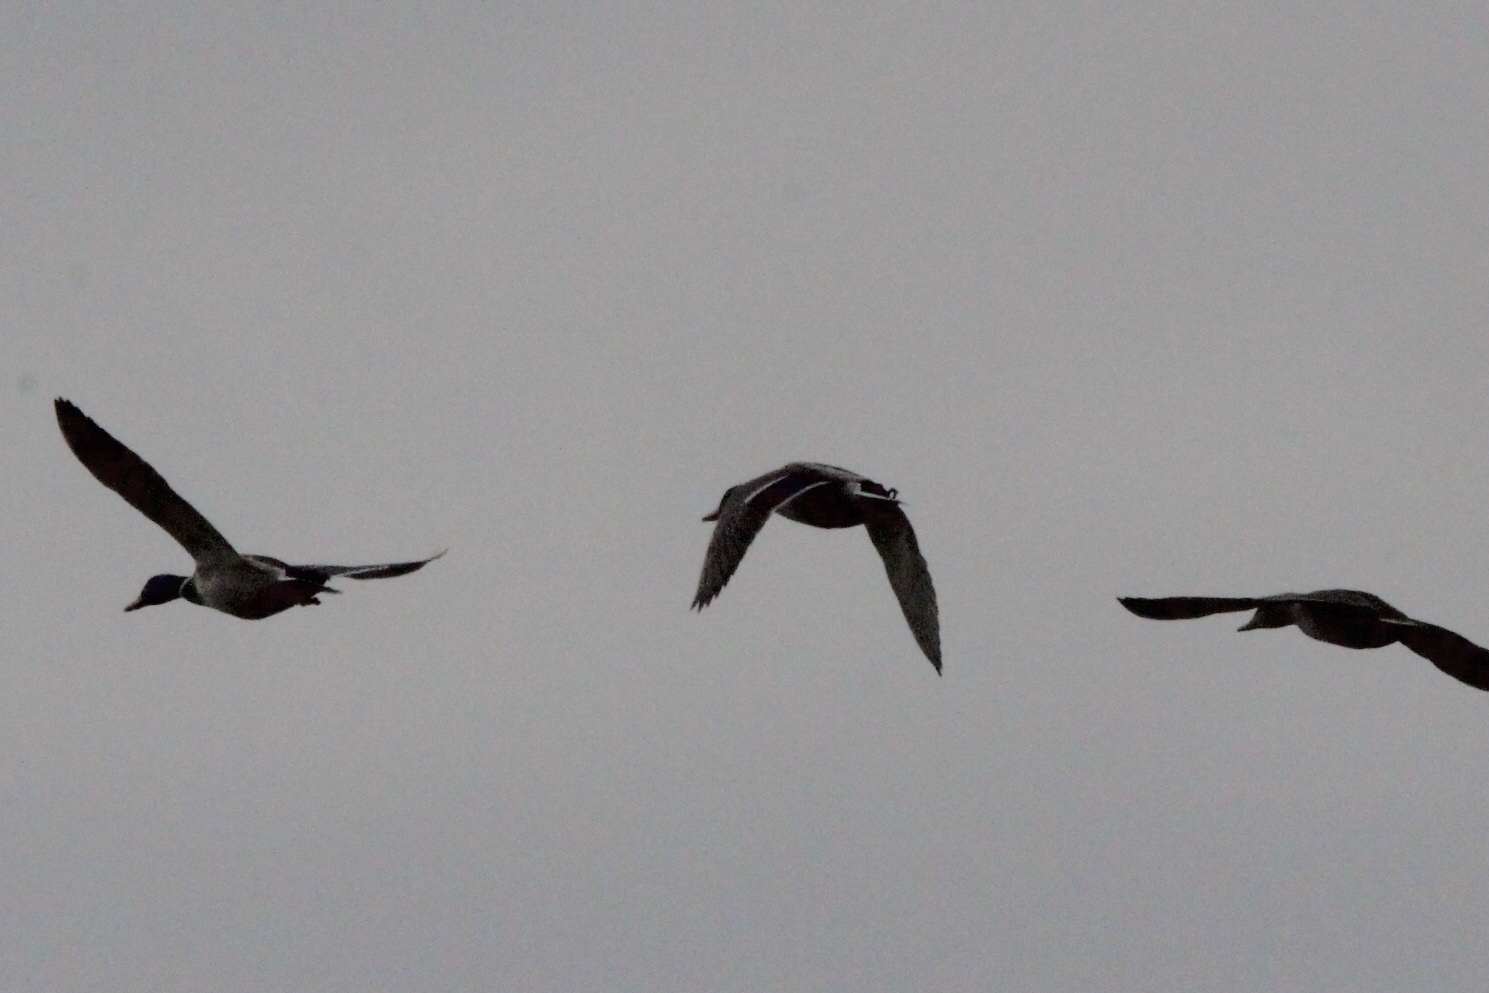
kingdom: Animalia
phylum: Chordata
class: Aves
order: Anseriformes
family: Anatidae
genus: Anas
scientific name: Anas platyrhynchos
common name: Mallard
